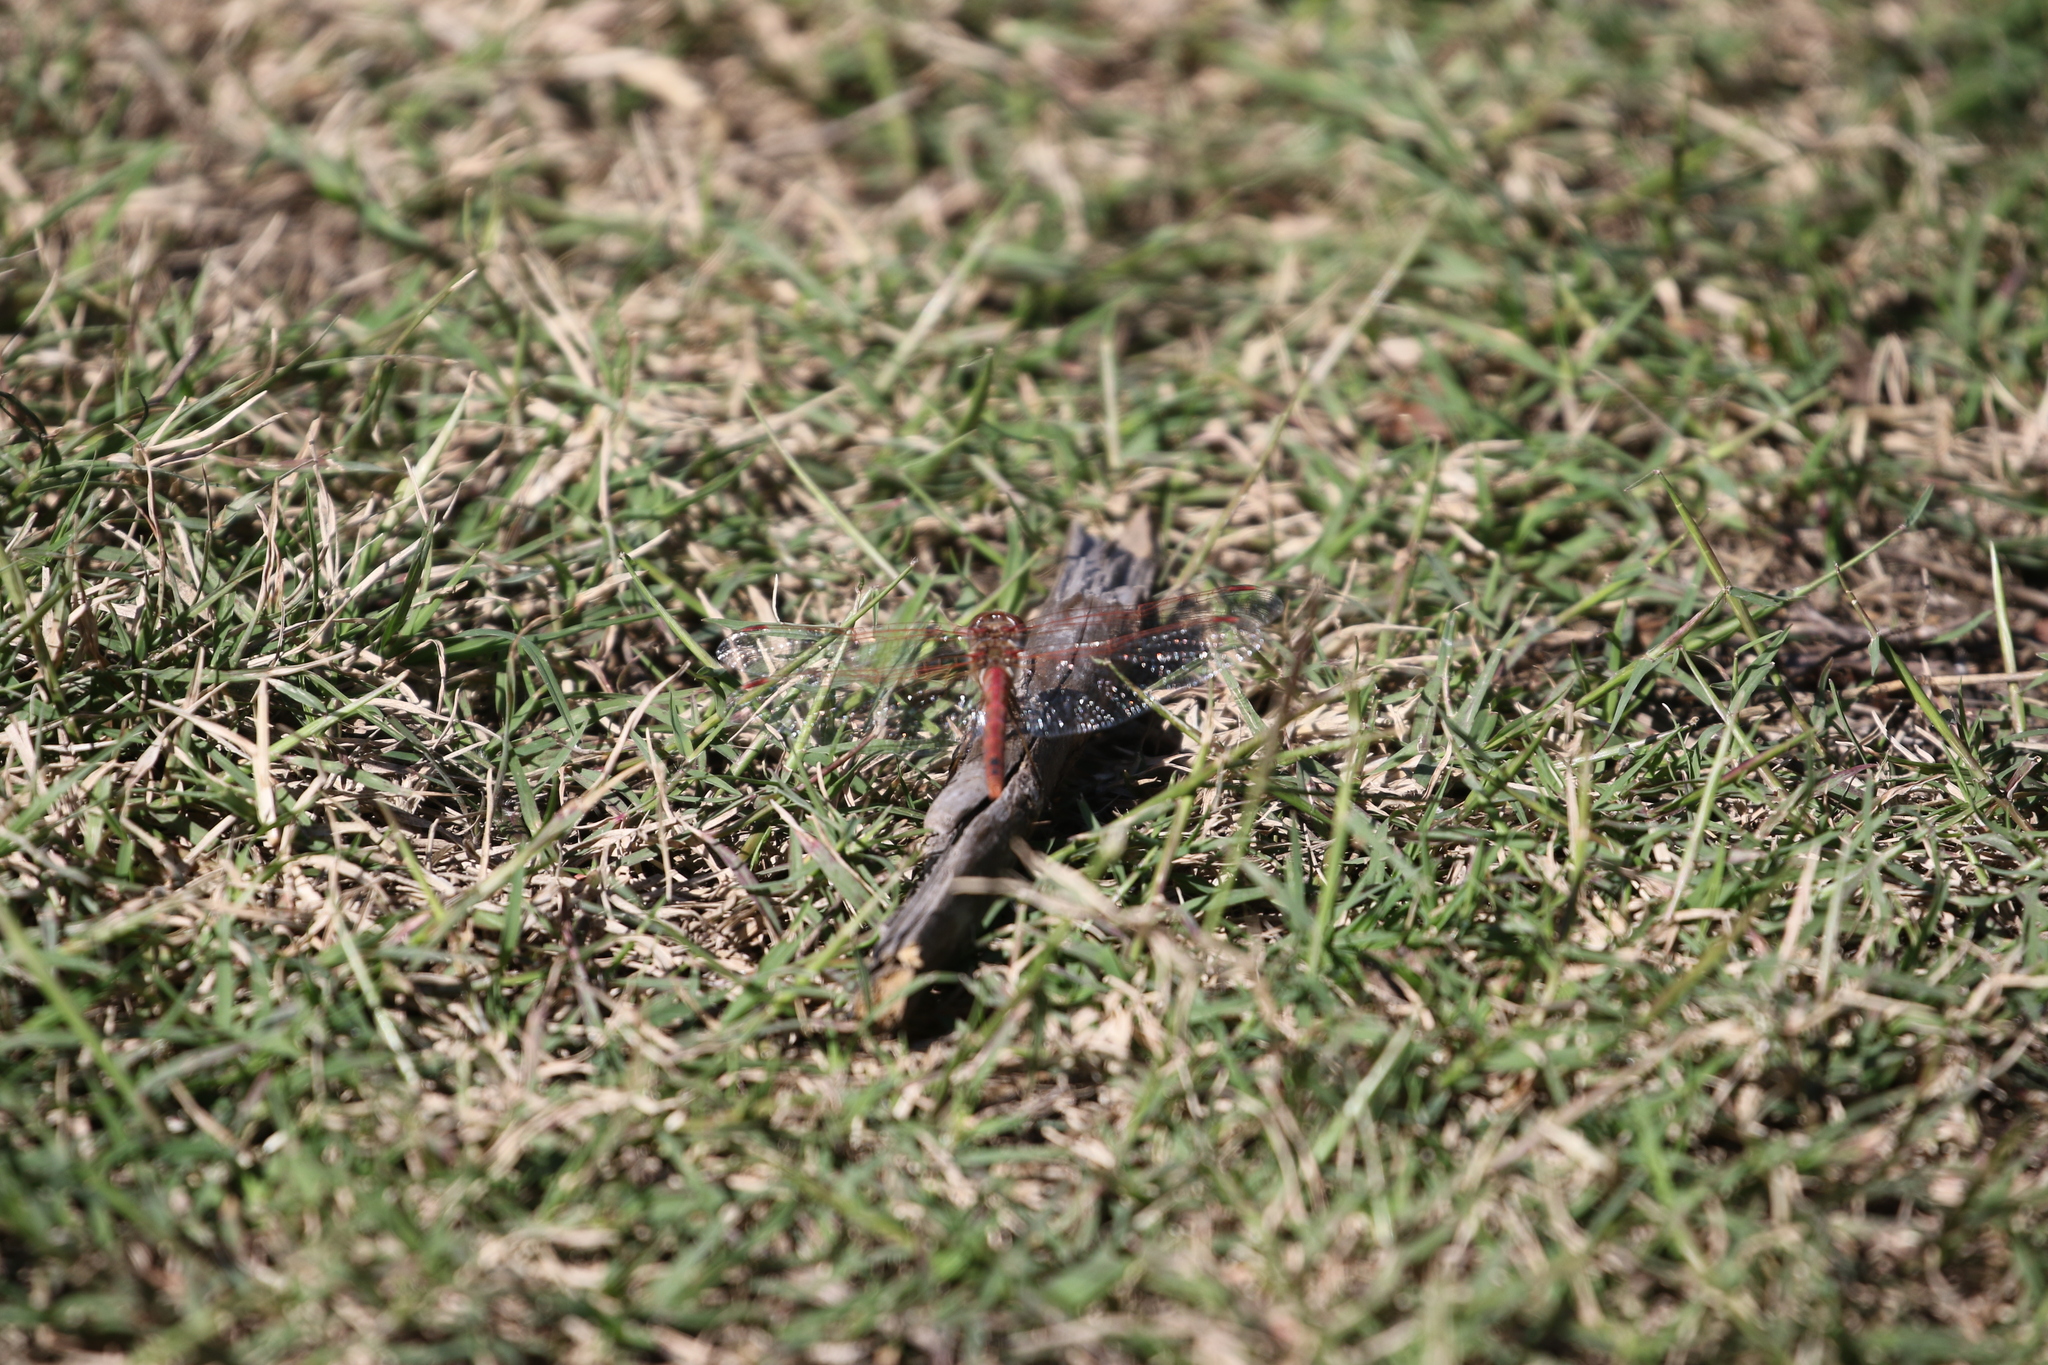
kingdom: Animalia
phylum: Arthropoda
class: Insecta
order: Odonata
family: Libellulidae
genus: Sympetrum
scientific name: Sympetrum corruptum
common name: Variegated meadowhawk
